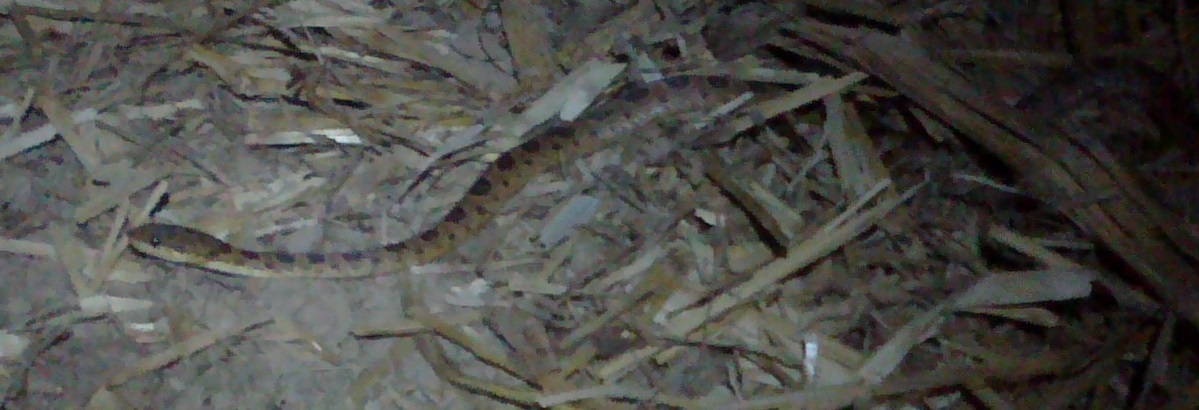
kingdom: Animalia
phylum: Chordata
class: Squamata
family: Colubridae
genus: Leptodeira
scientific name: Leptodeira ornata
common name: Northern cat-eyed snake
